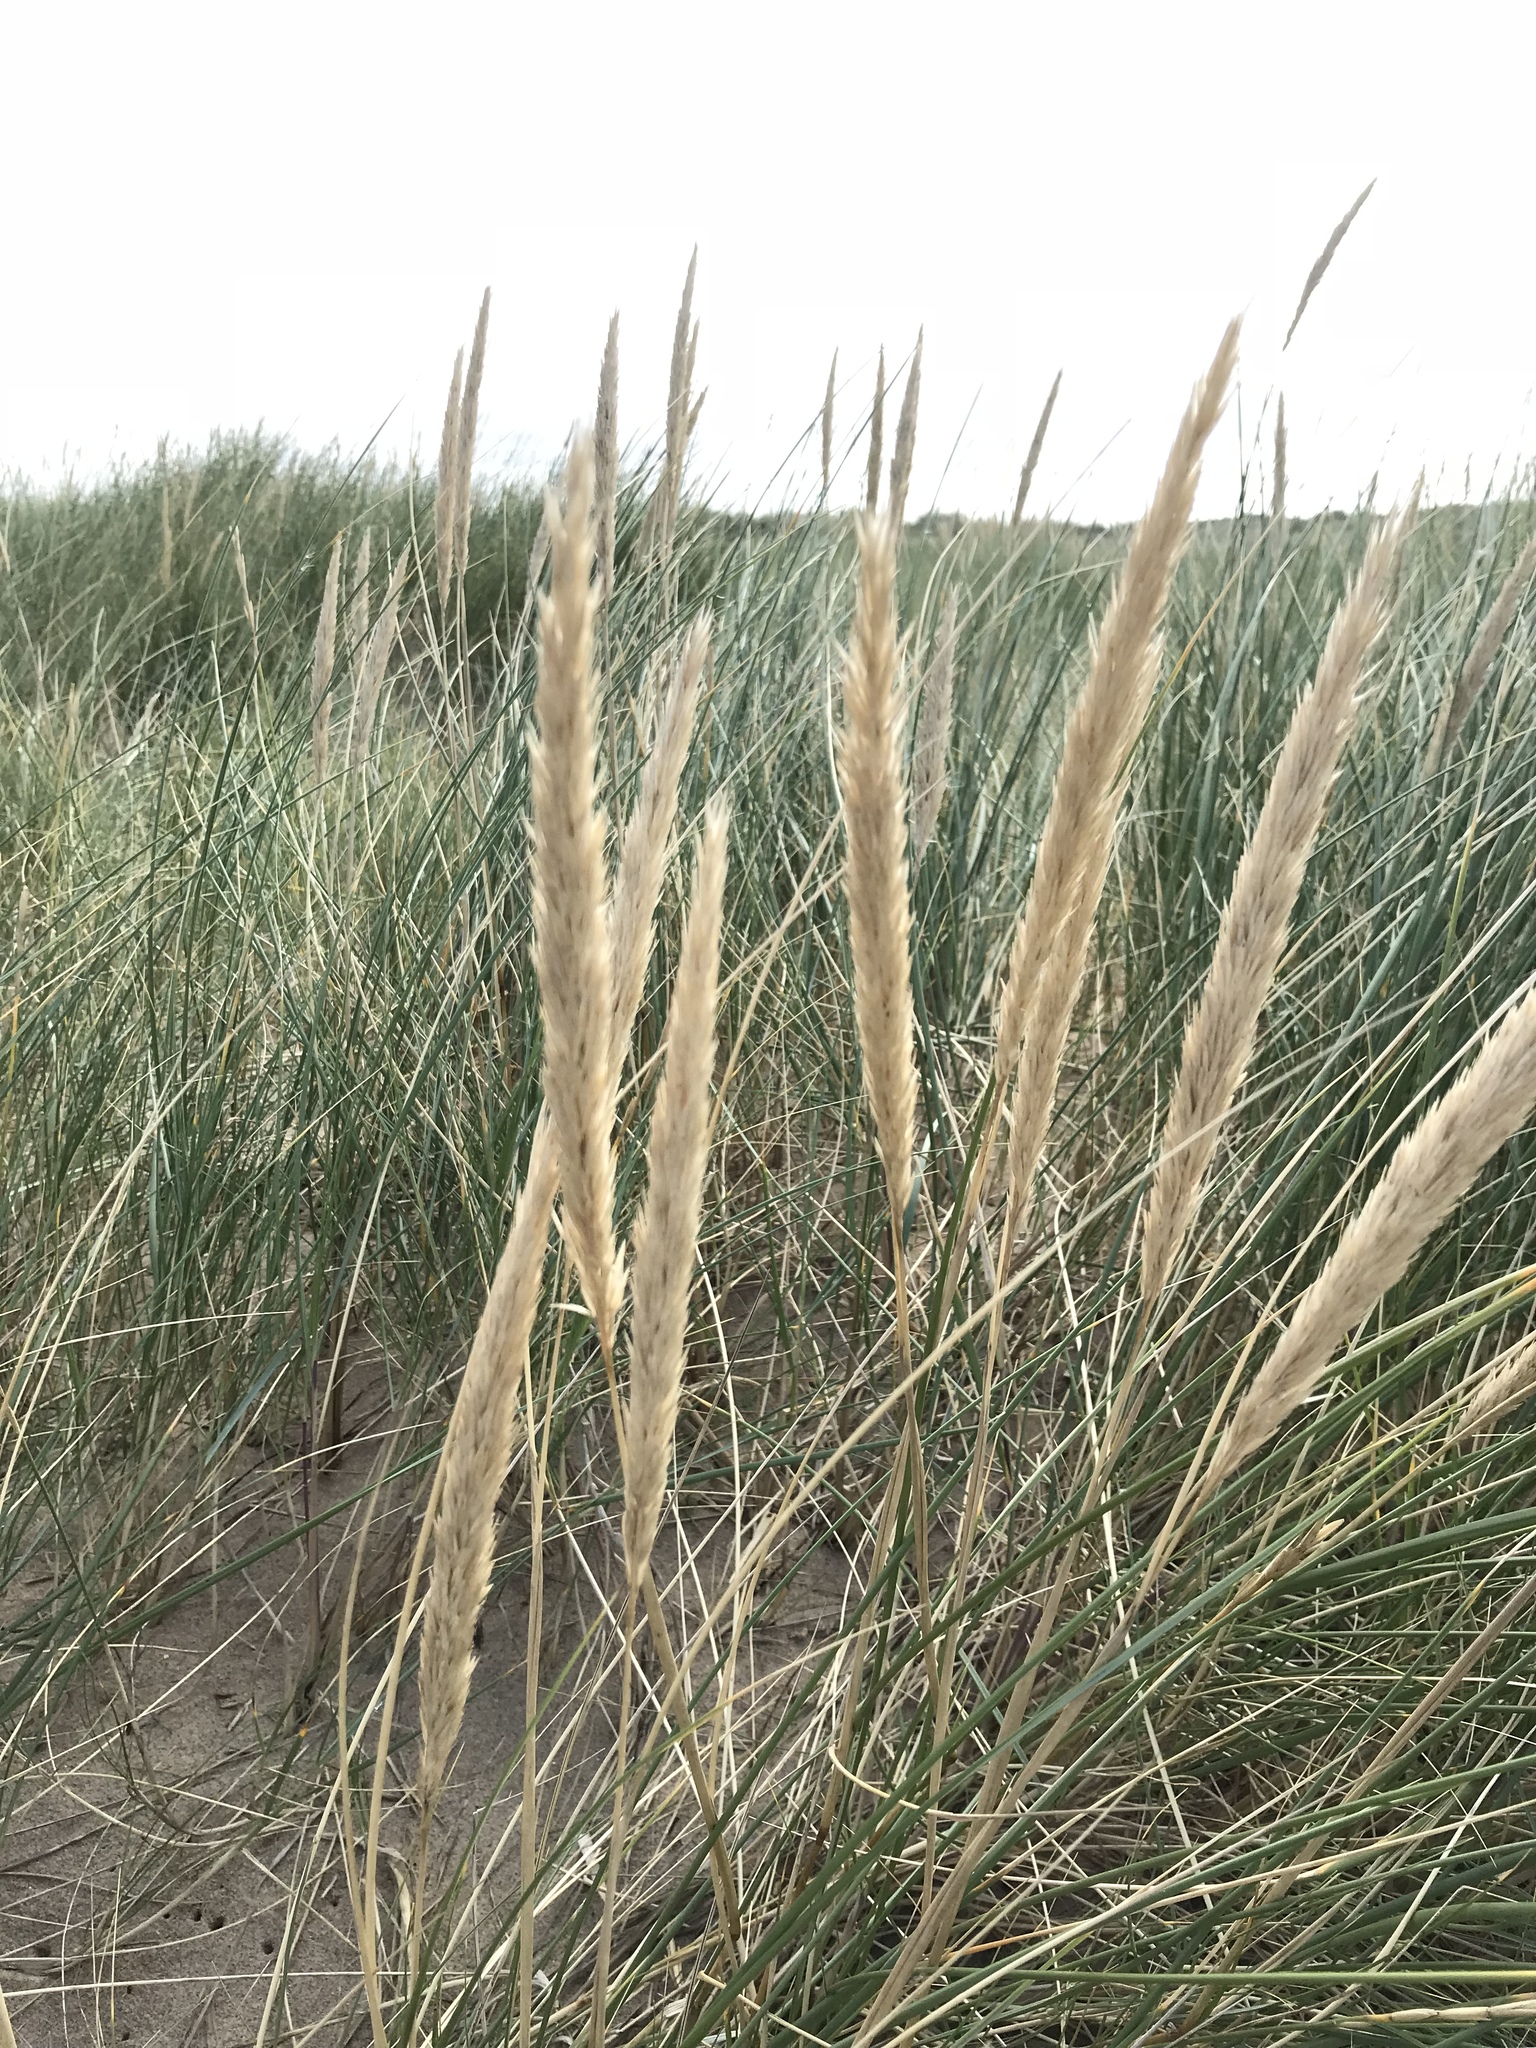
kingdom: Plantae
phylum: Tracheophyta
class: Liliopsida
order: Poales
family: Poaceae
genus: Calamagrostis
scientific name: Calamagrostis arenaria
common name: European beachgrass
